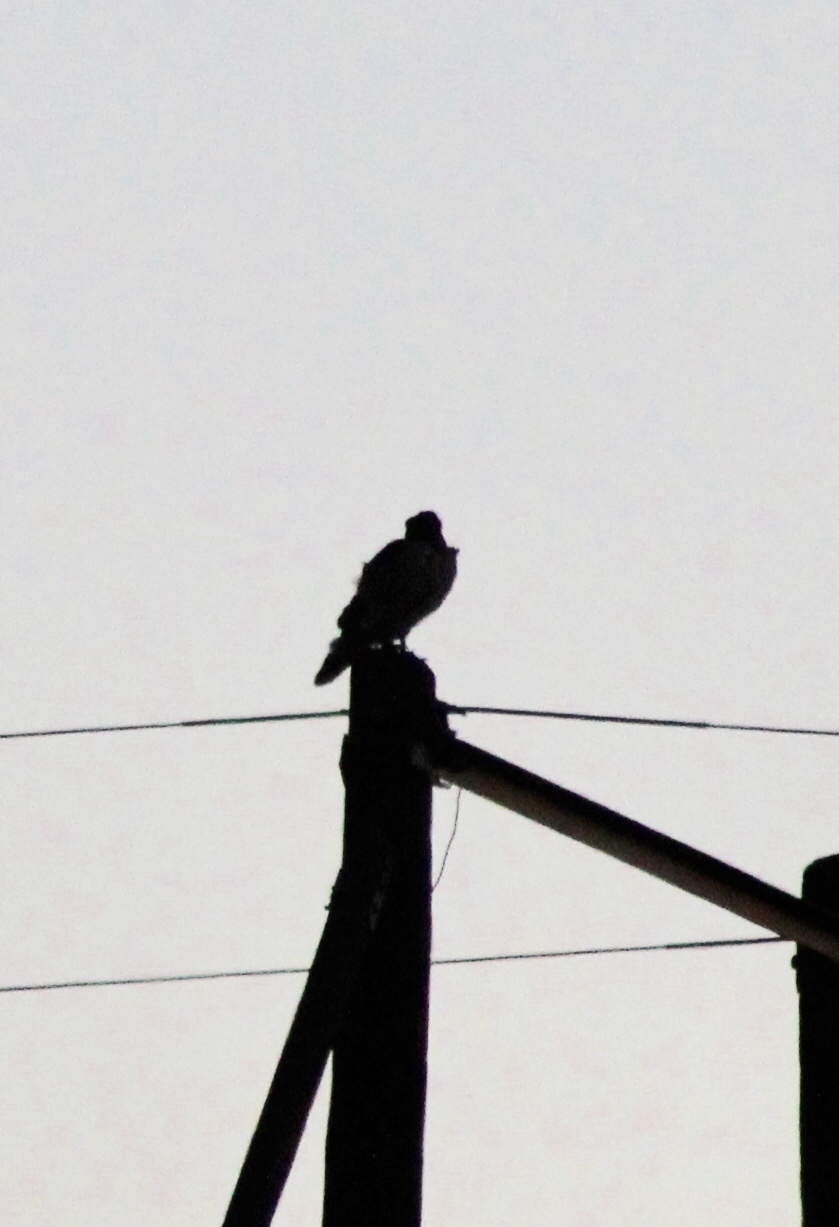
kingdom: Animalia
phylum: Chordata
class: Aves
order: Accipitriformes
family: Accipitridae
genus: Buteo
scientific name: Buteo jamaicensis
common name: Red-tailed hawk
